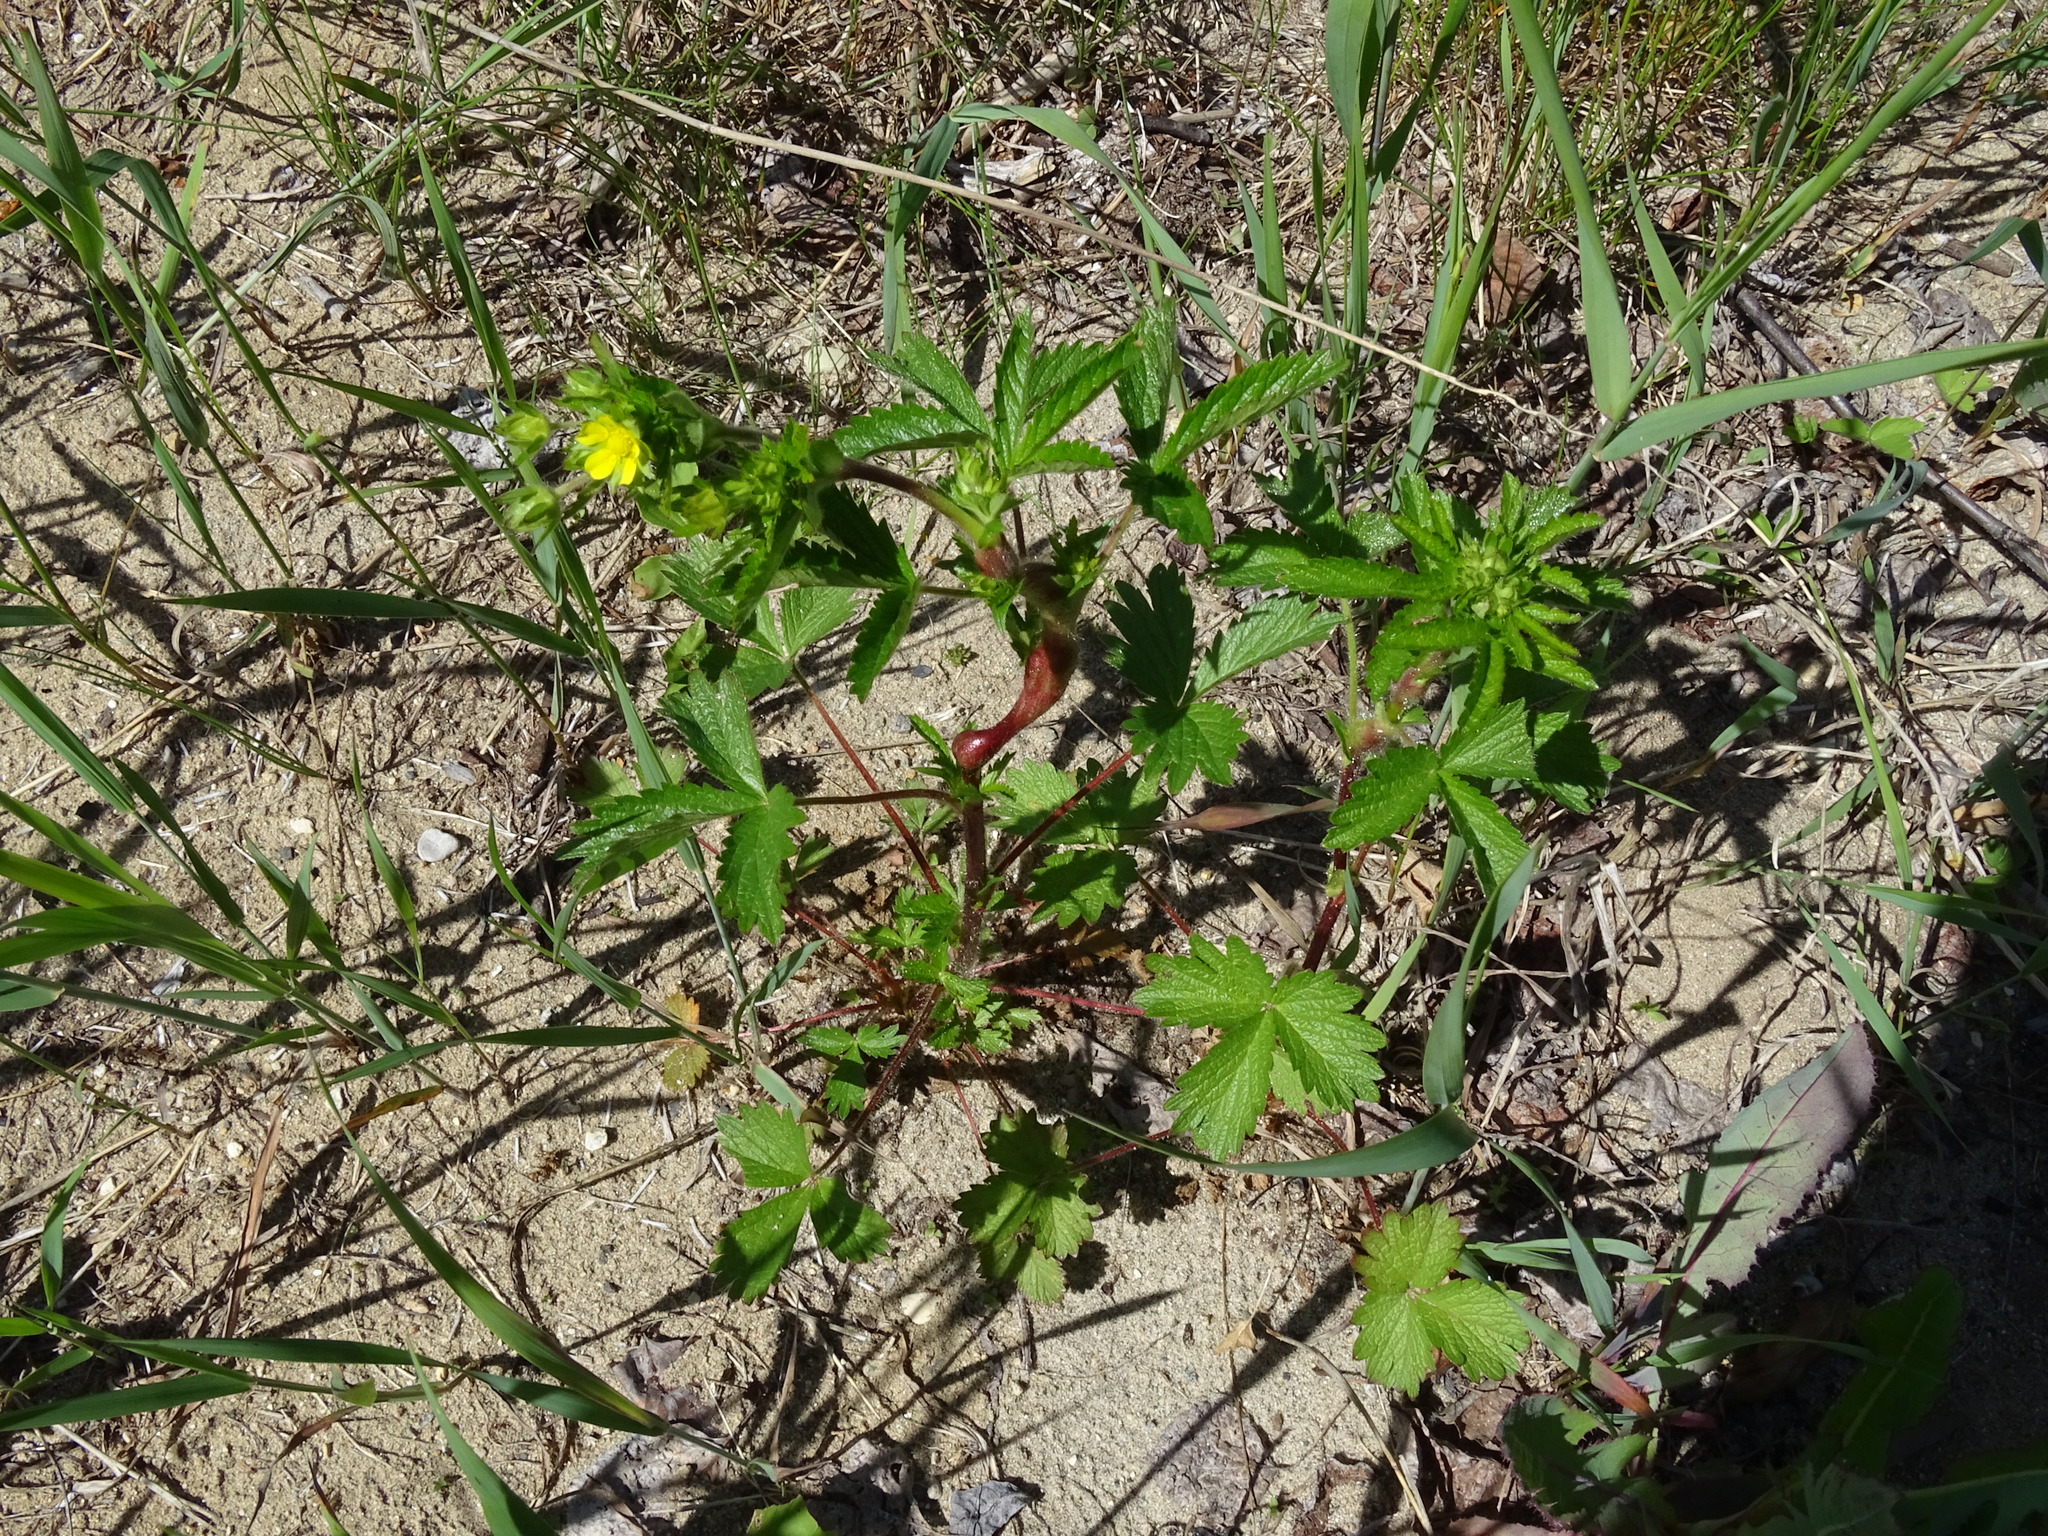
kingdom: Plantae
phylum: Tracheophyta
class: Magnoliopsida
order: Rosales
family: Rosaceae
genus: Potentilla
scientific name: Potentilla norvegica
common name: Ternate-leaved cinquefoil
